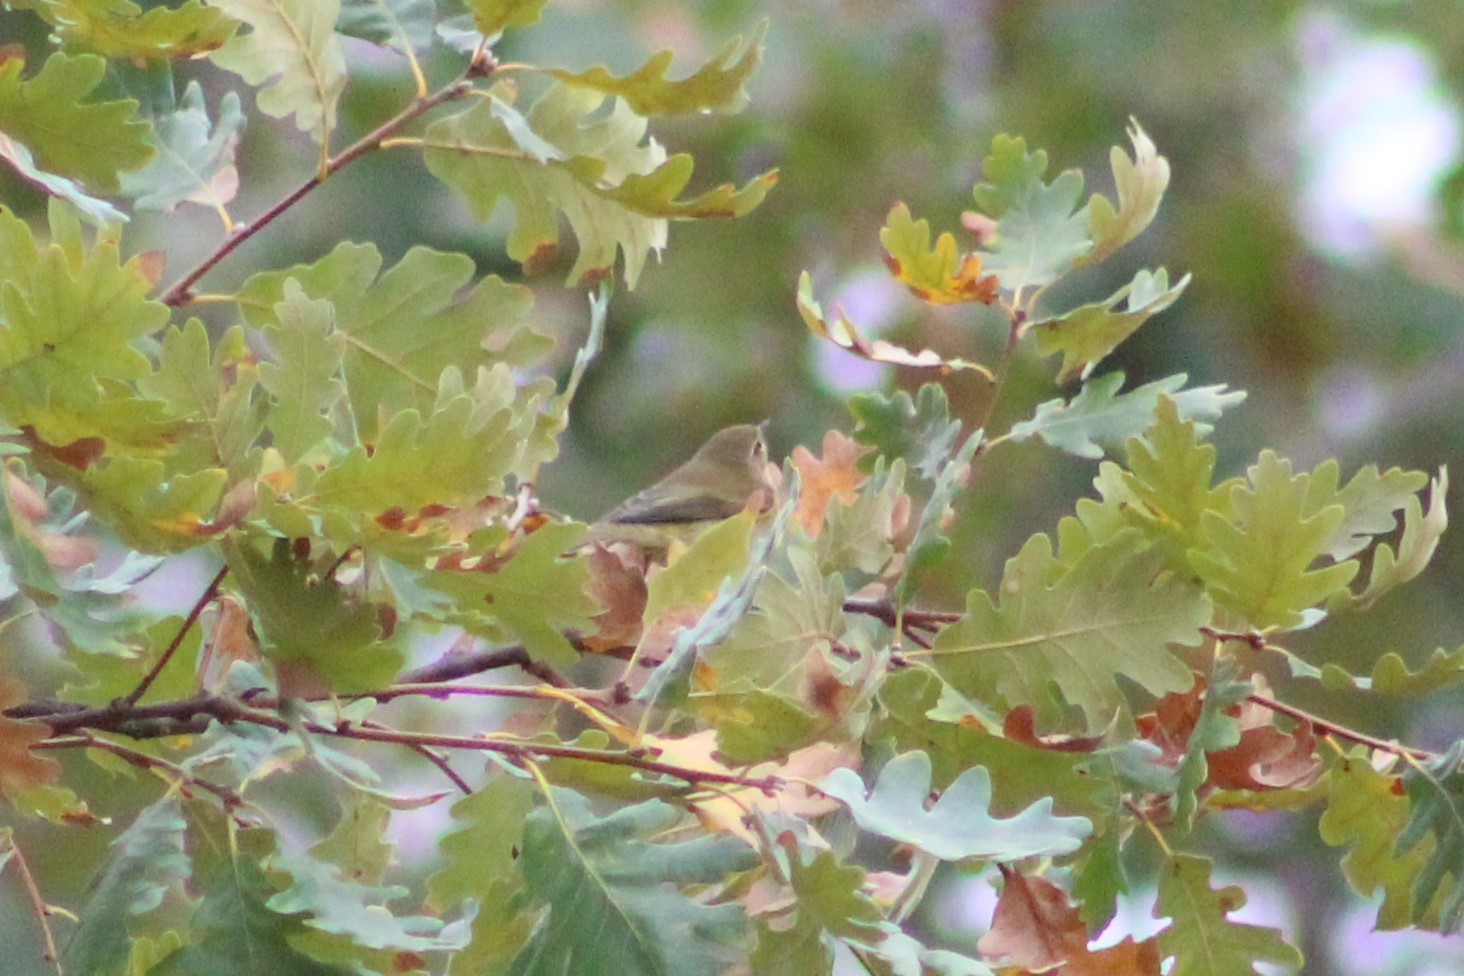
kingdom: Animalia
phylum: Chordata
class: Aves
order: Passeriformes
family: Phylloscopidae
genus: Phylloscopus
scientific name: Phylloscopus collybita
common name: Common chiffchaff
